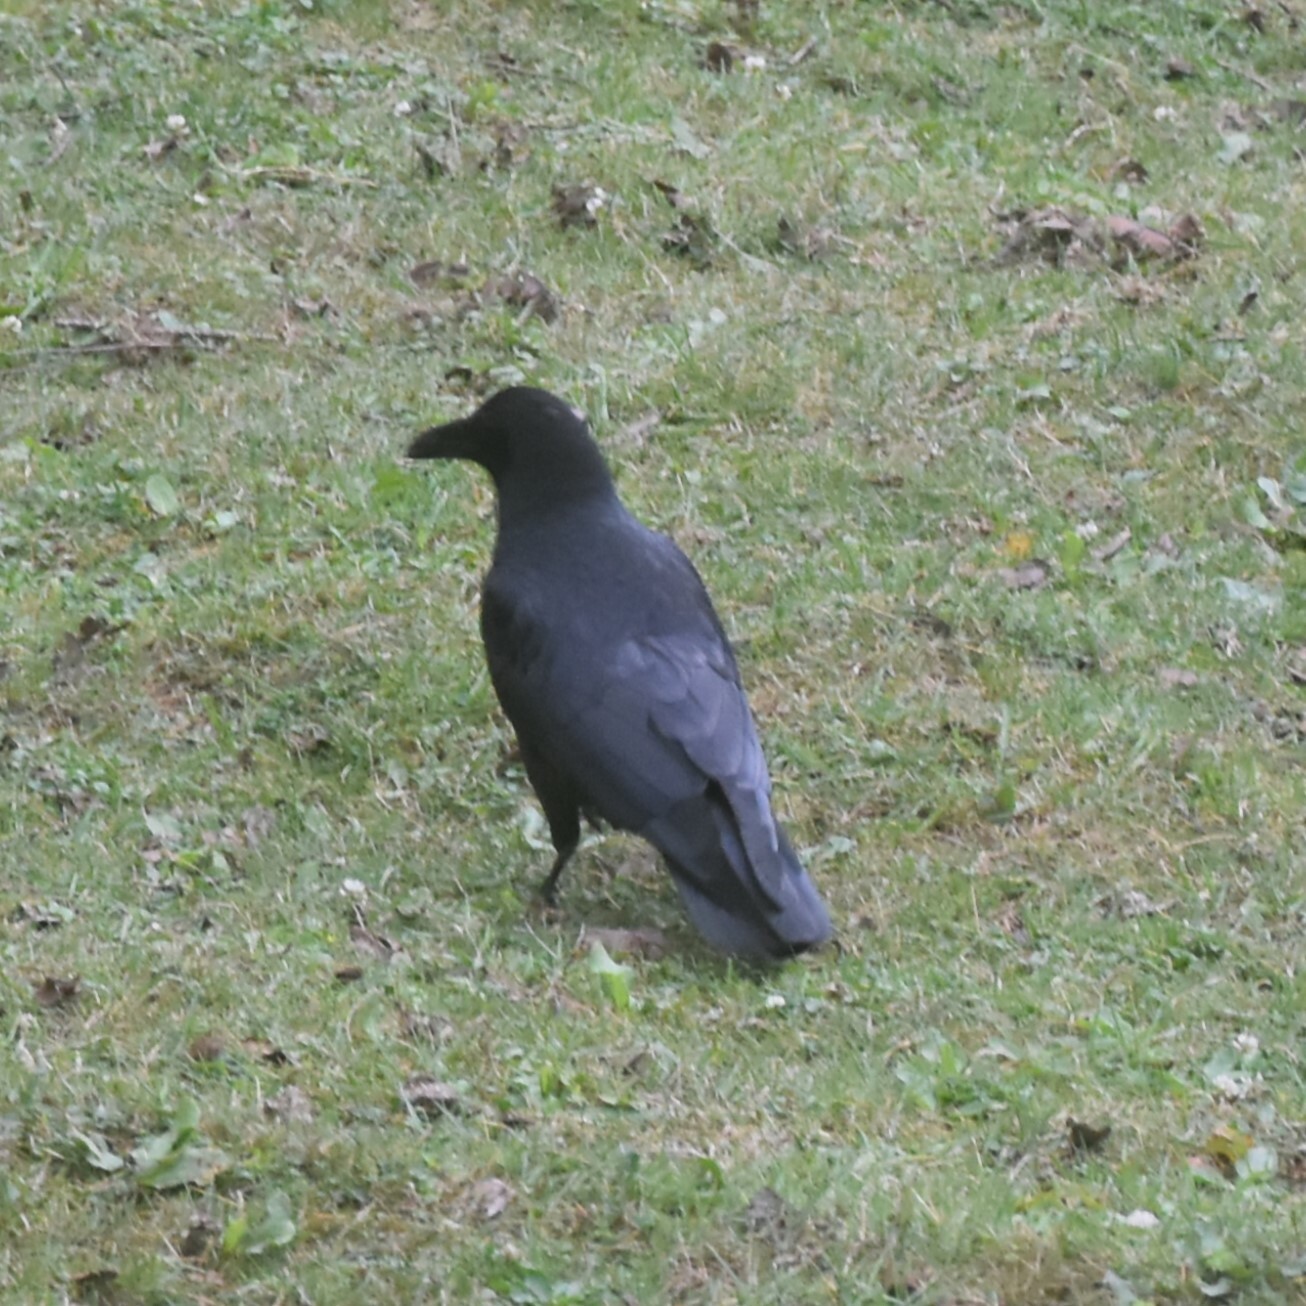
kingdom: Animalia
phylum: Chordata
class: Aves
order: Passeriformes
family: Corvidae
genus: Corvus
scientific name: Corvus macrorhynchos
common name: Large-billed crow
